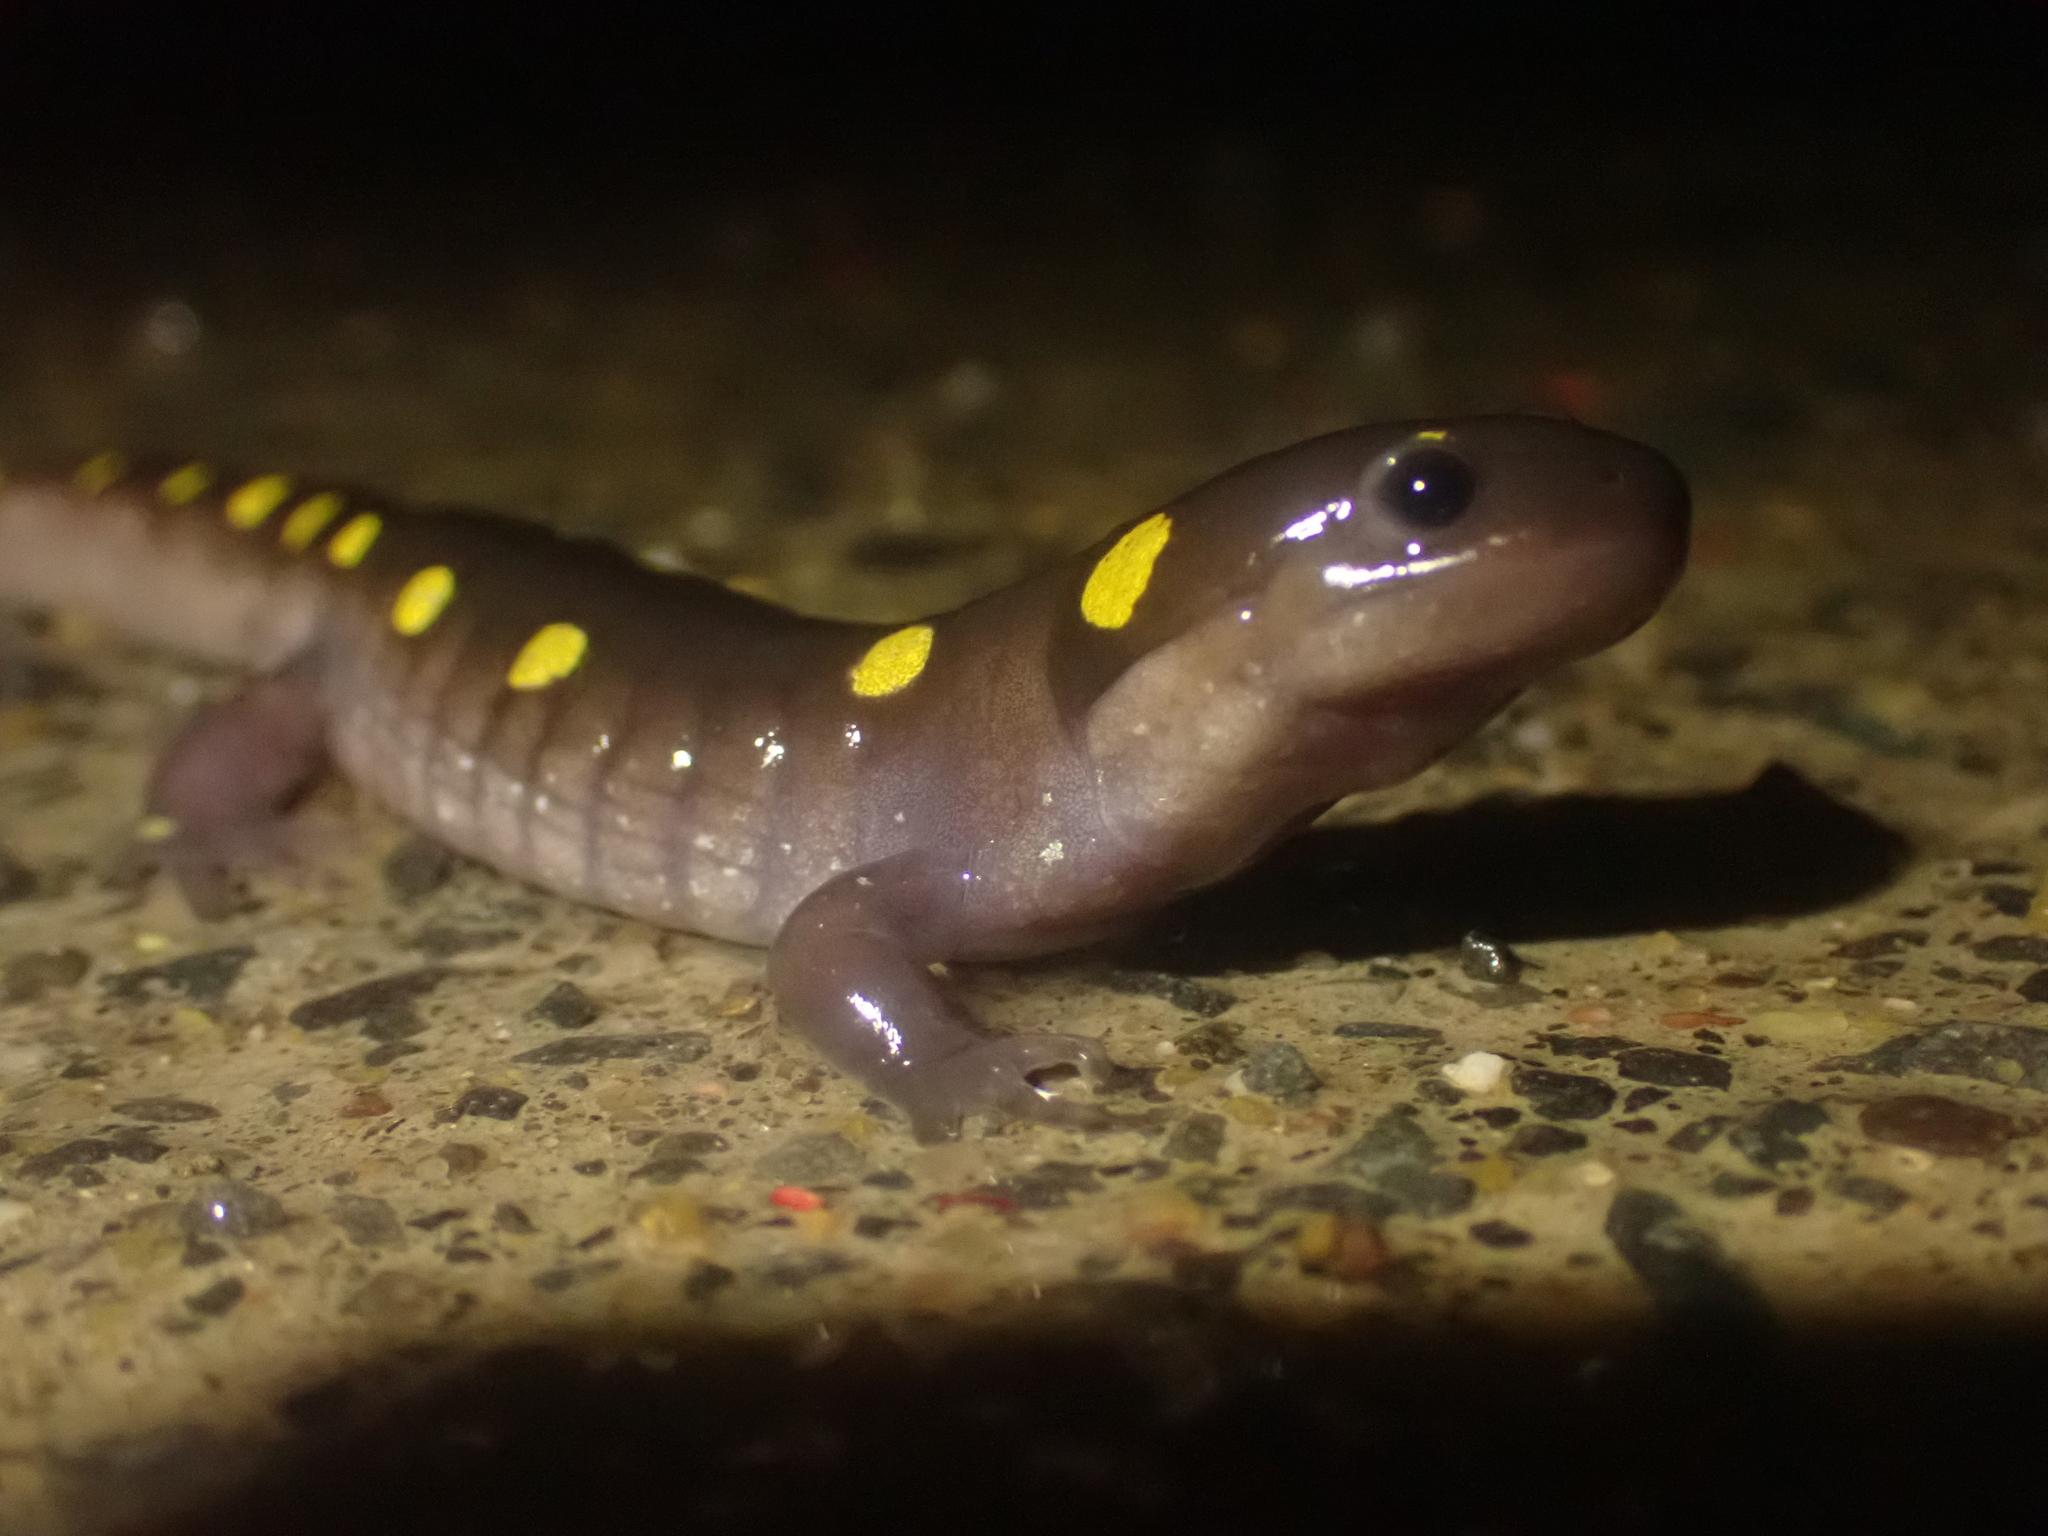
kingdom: Animalia
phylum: Chordata
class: Amphibia
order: Caudata
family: Ambystomatidae
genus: Ambystoma
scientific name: Ambystoma maculatum
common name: Spotted salamander
